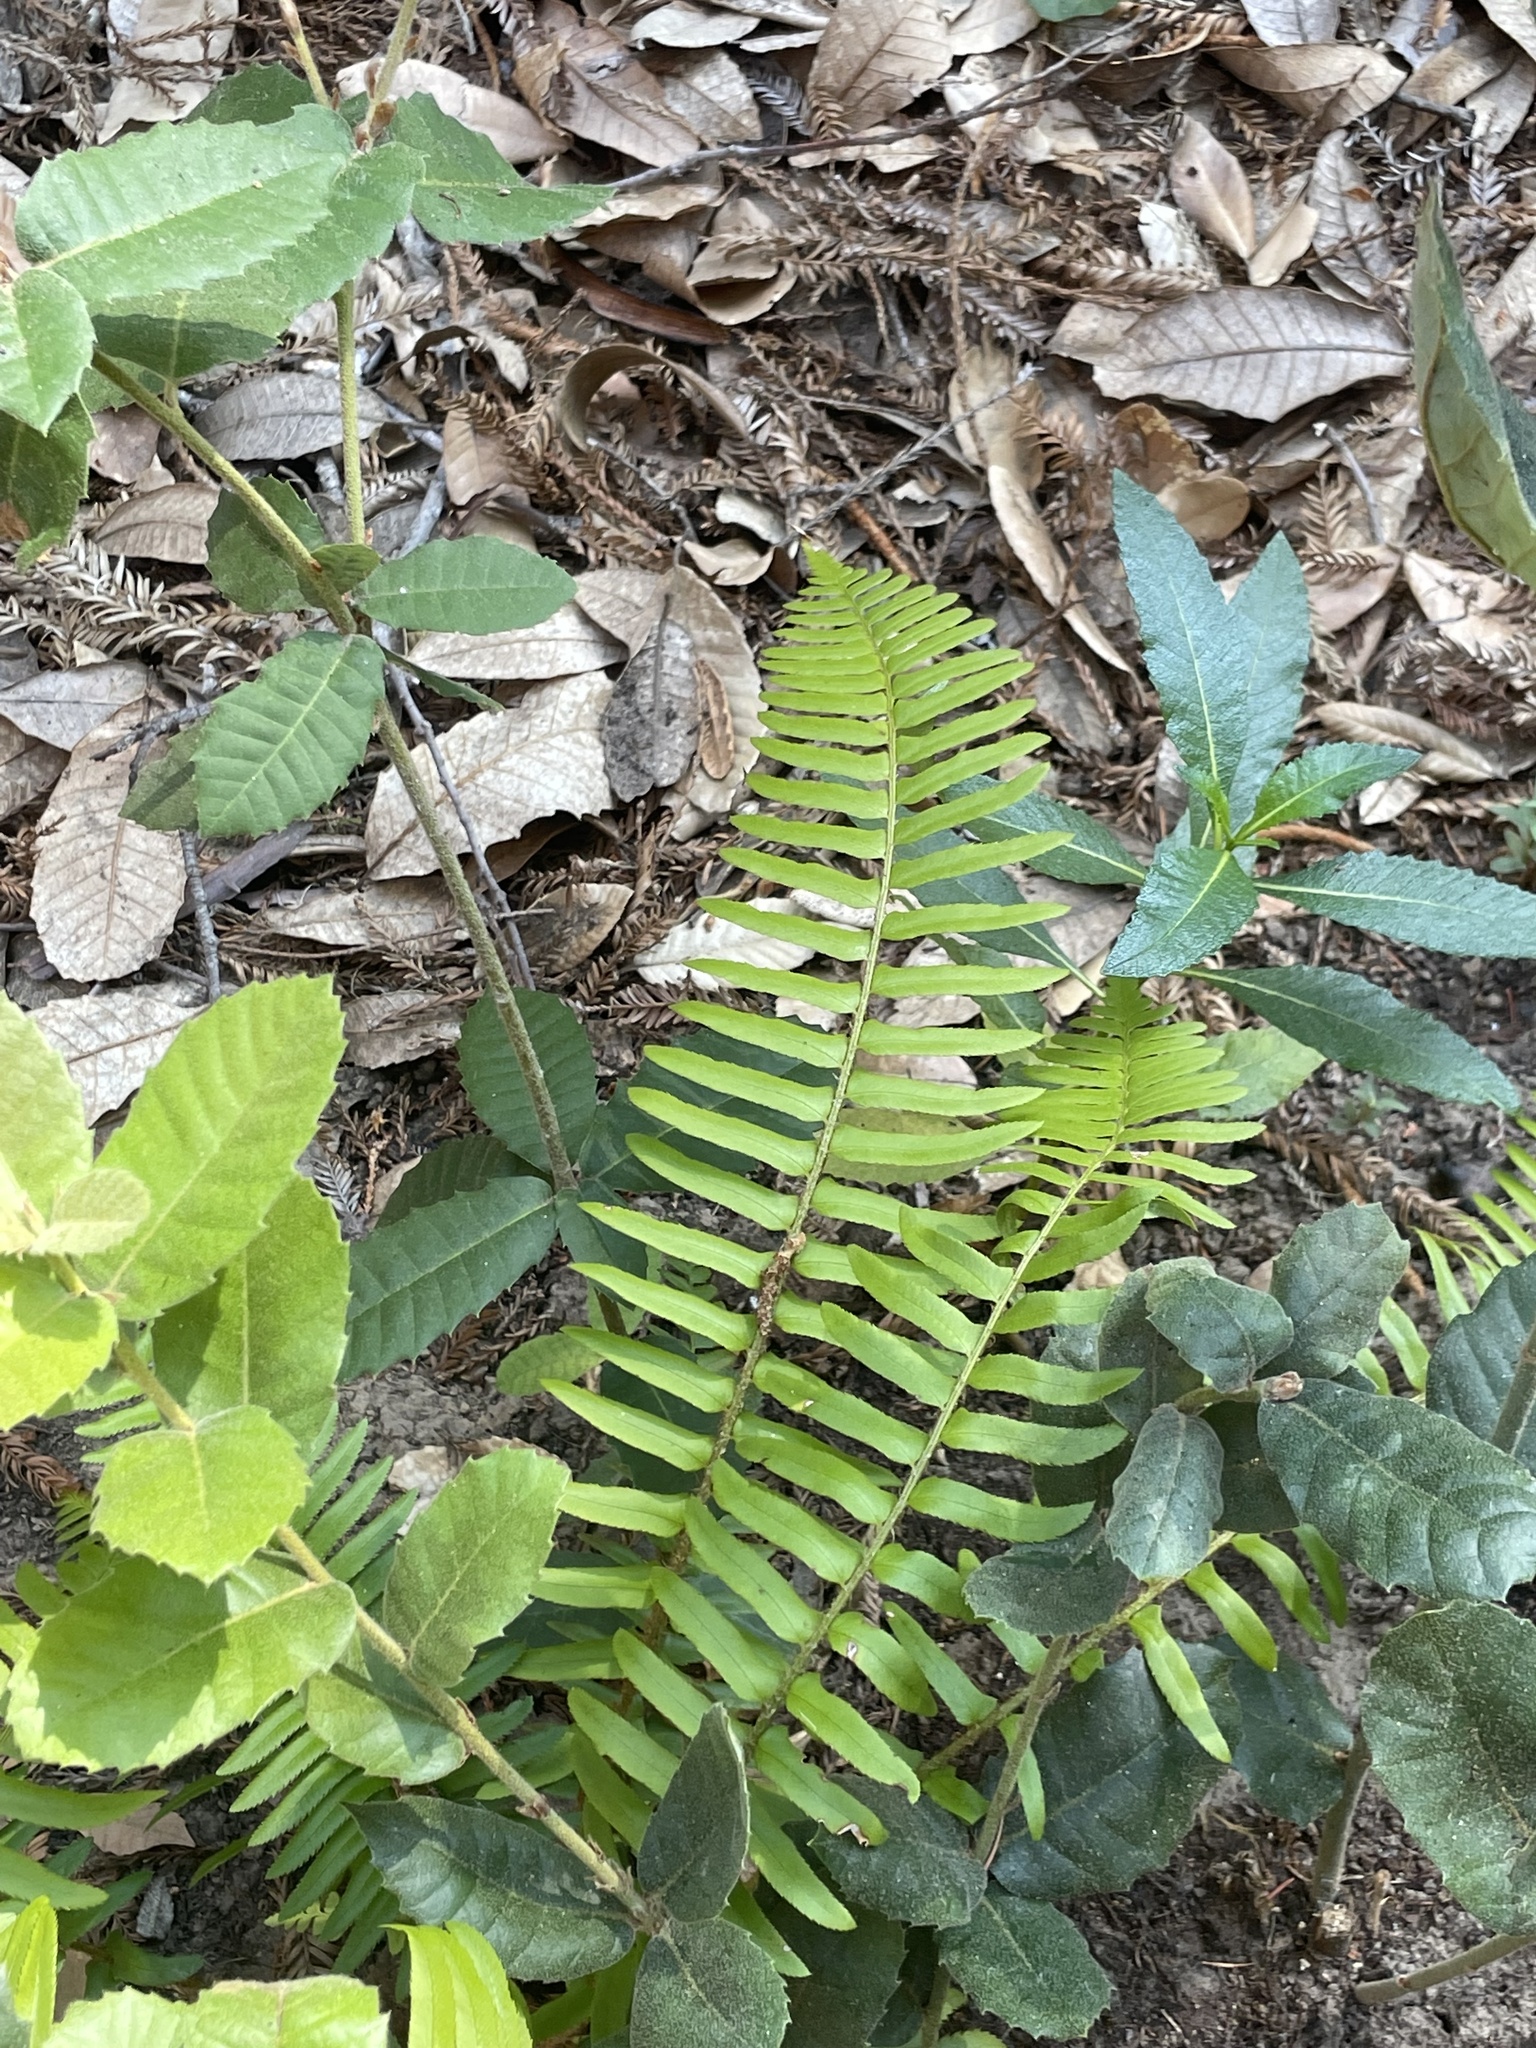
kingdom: Plantae
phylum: Tracheophyta
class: Polypodiopsida
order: Polypodiales
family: Dryopteridaceae
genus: Polystichum
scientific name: Polystichum munitum
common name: Western sword-fern
